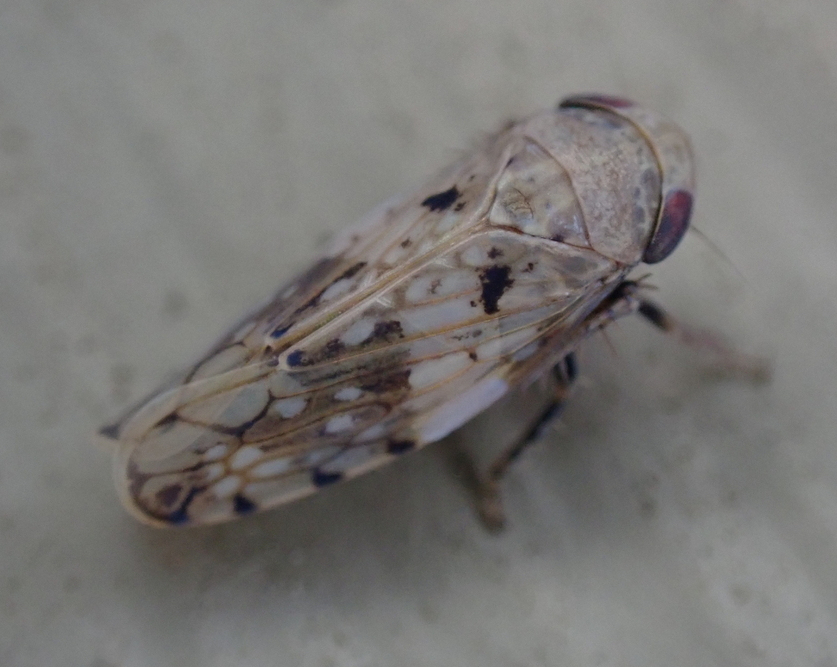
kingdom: Animalia
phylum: Arthropoda
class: Insecta
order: Hemiptera
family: Cicadellidae
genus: Menosoma
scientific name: Menosoma cinctum
